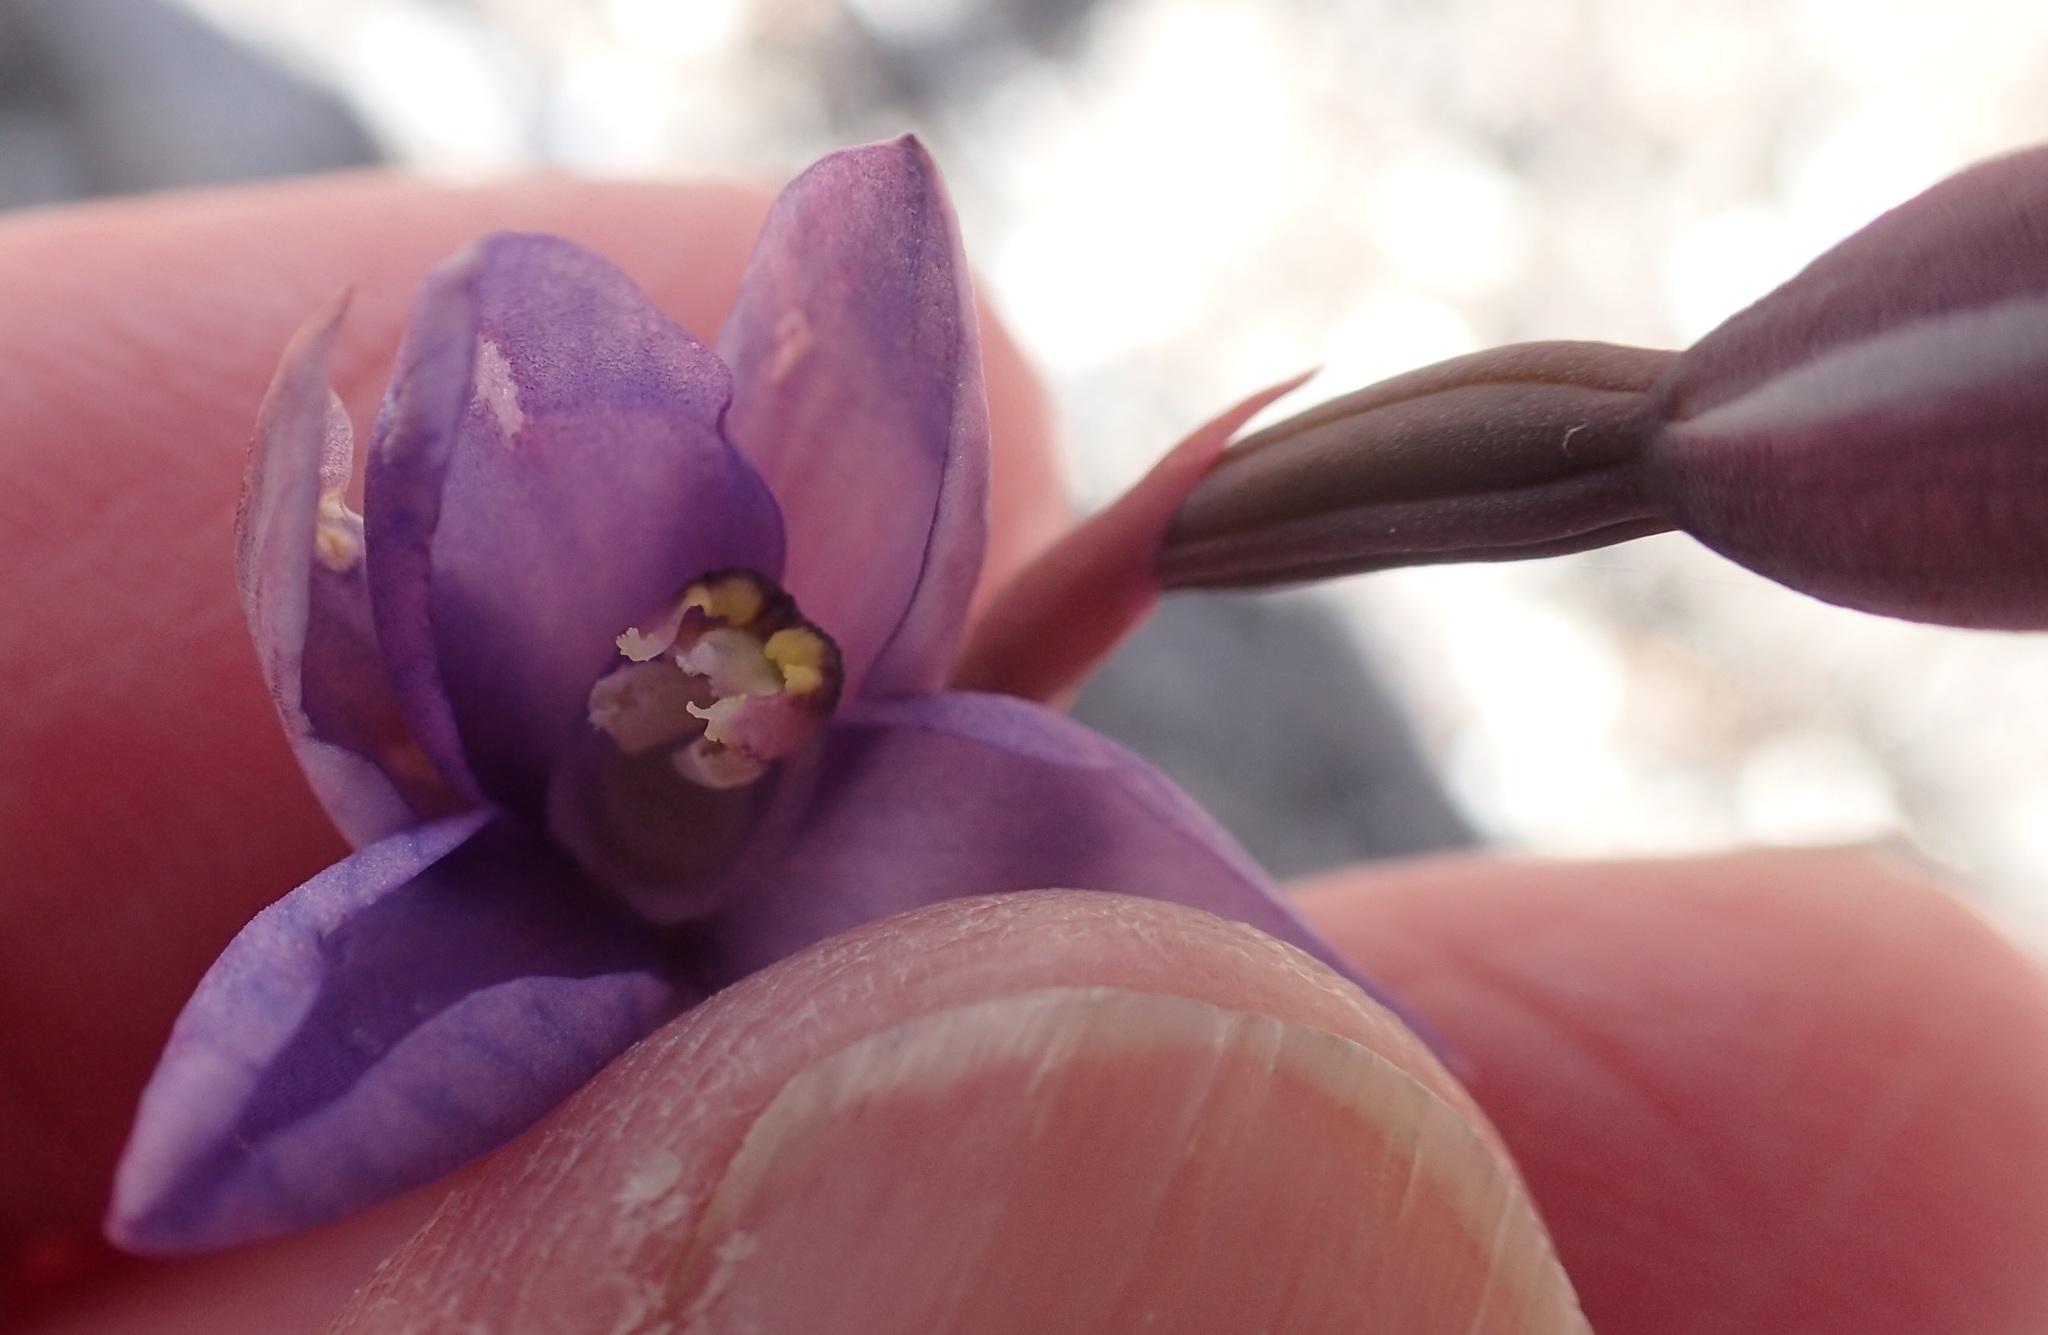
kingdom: Plantae
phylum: Tracheophyta
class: Liliopsida
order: Asparagales
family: Orchidaceae
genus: Thelymitra
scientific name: Thelymitra erosa
